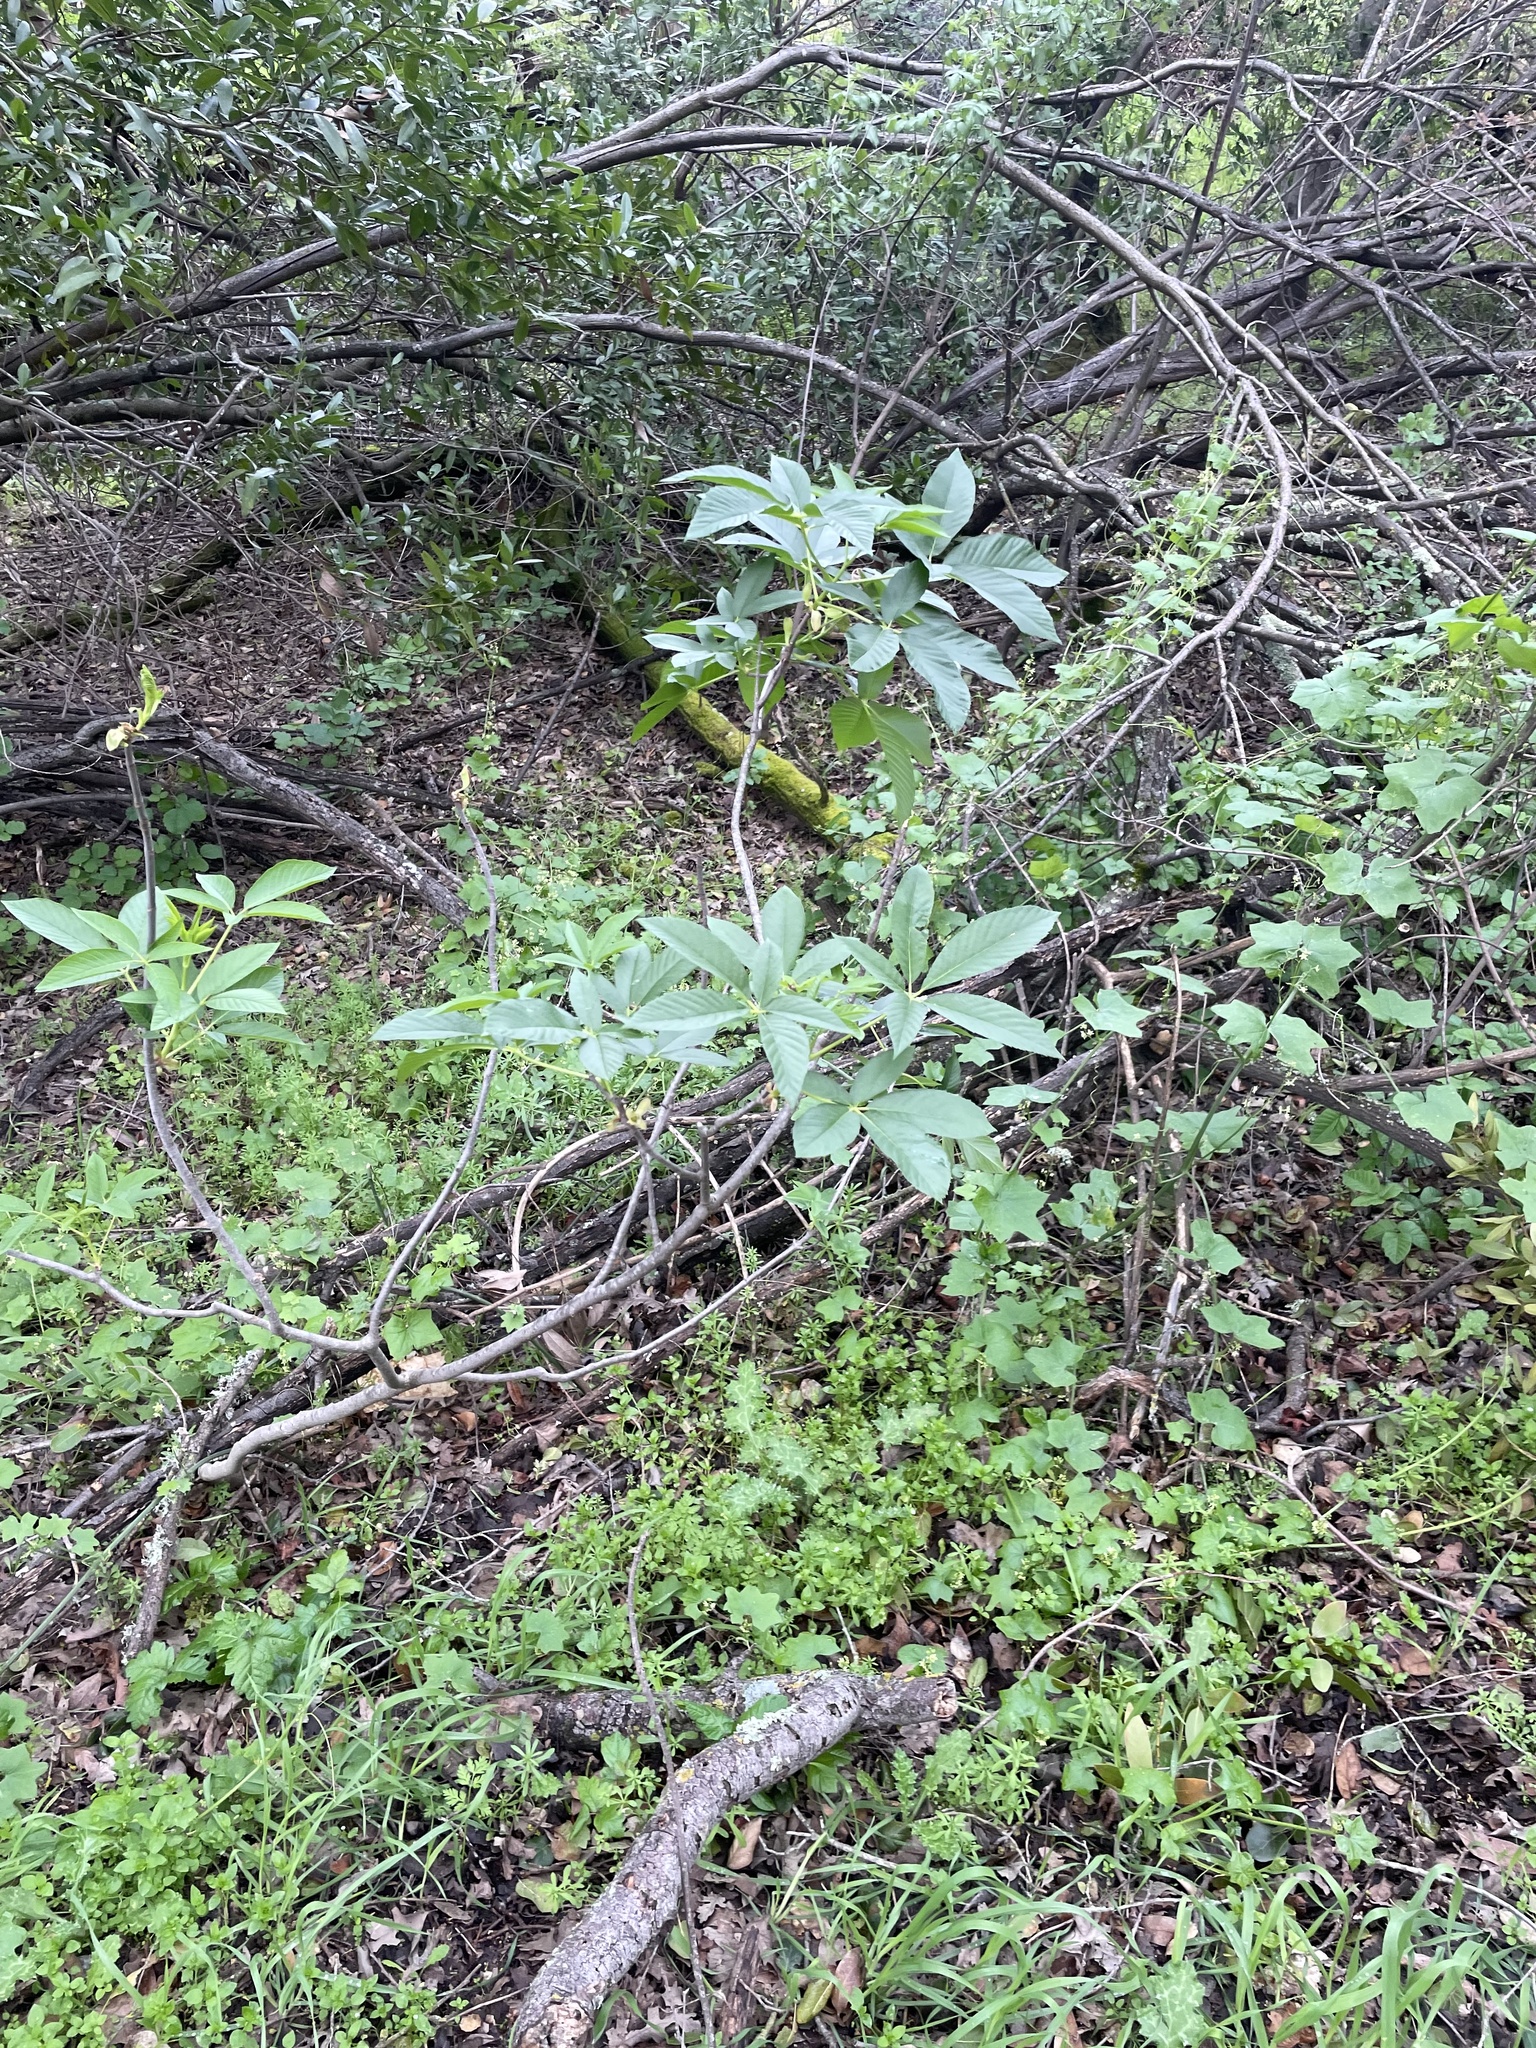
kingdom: Plantae
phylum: Tracheophyta
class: Magnoliopsida
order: Sapindales
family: Sapindaceae
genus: Aesculus
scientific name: Aesculus californica
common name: California buckeye
